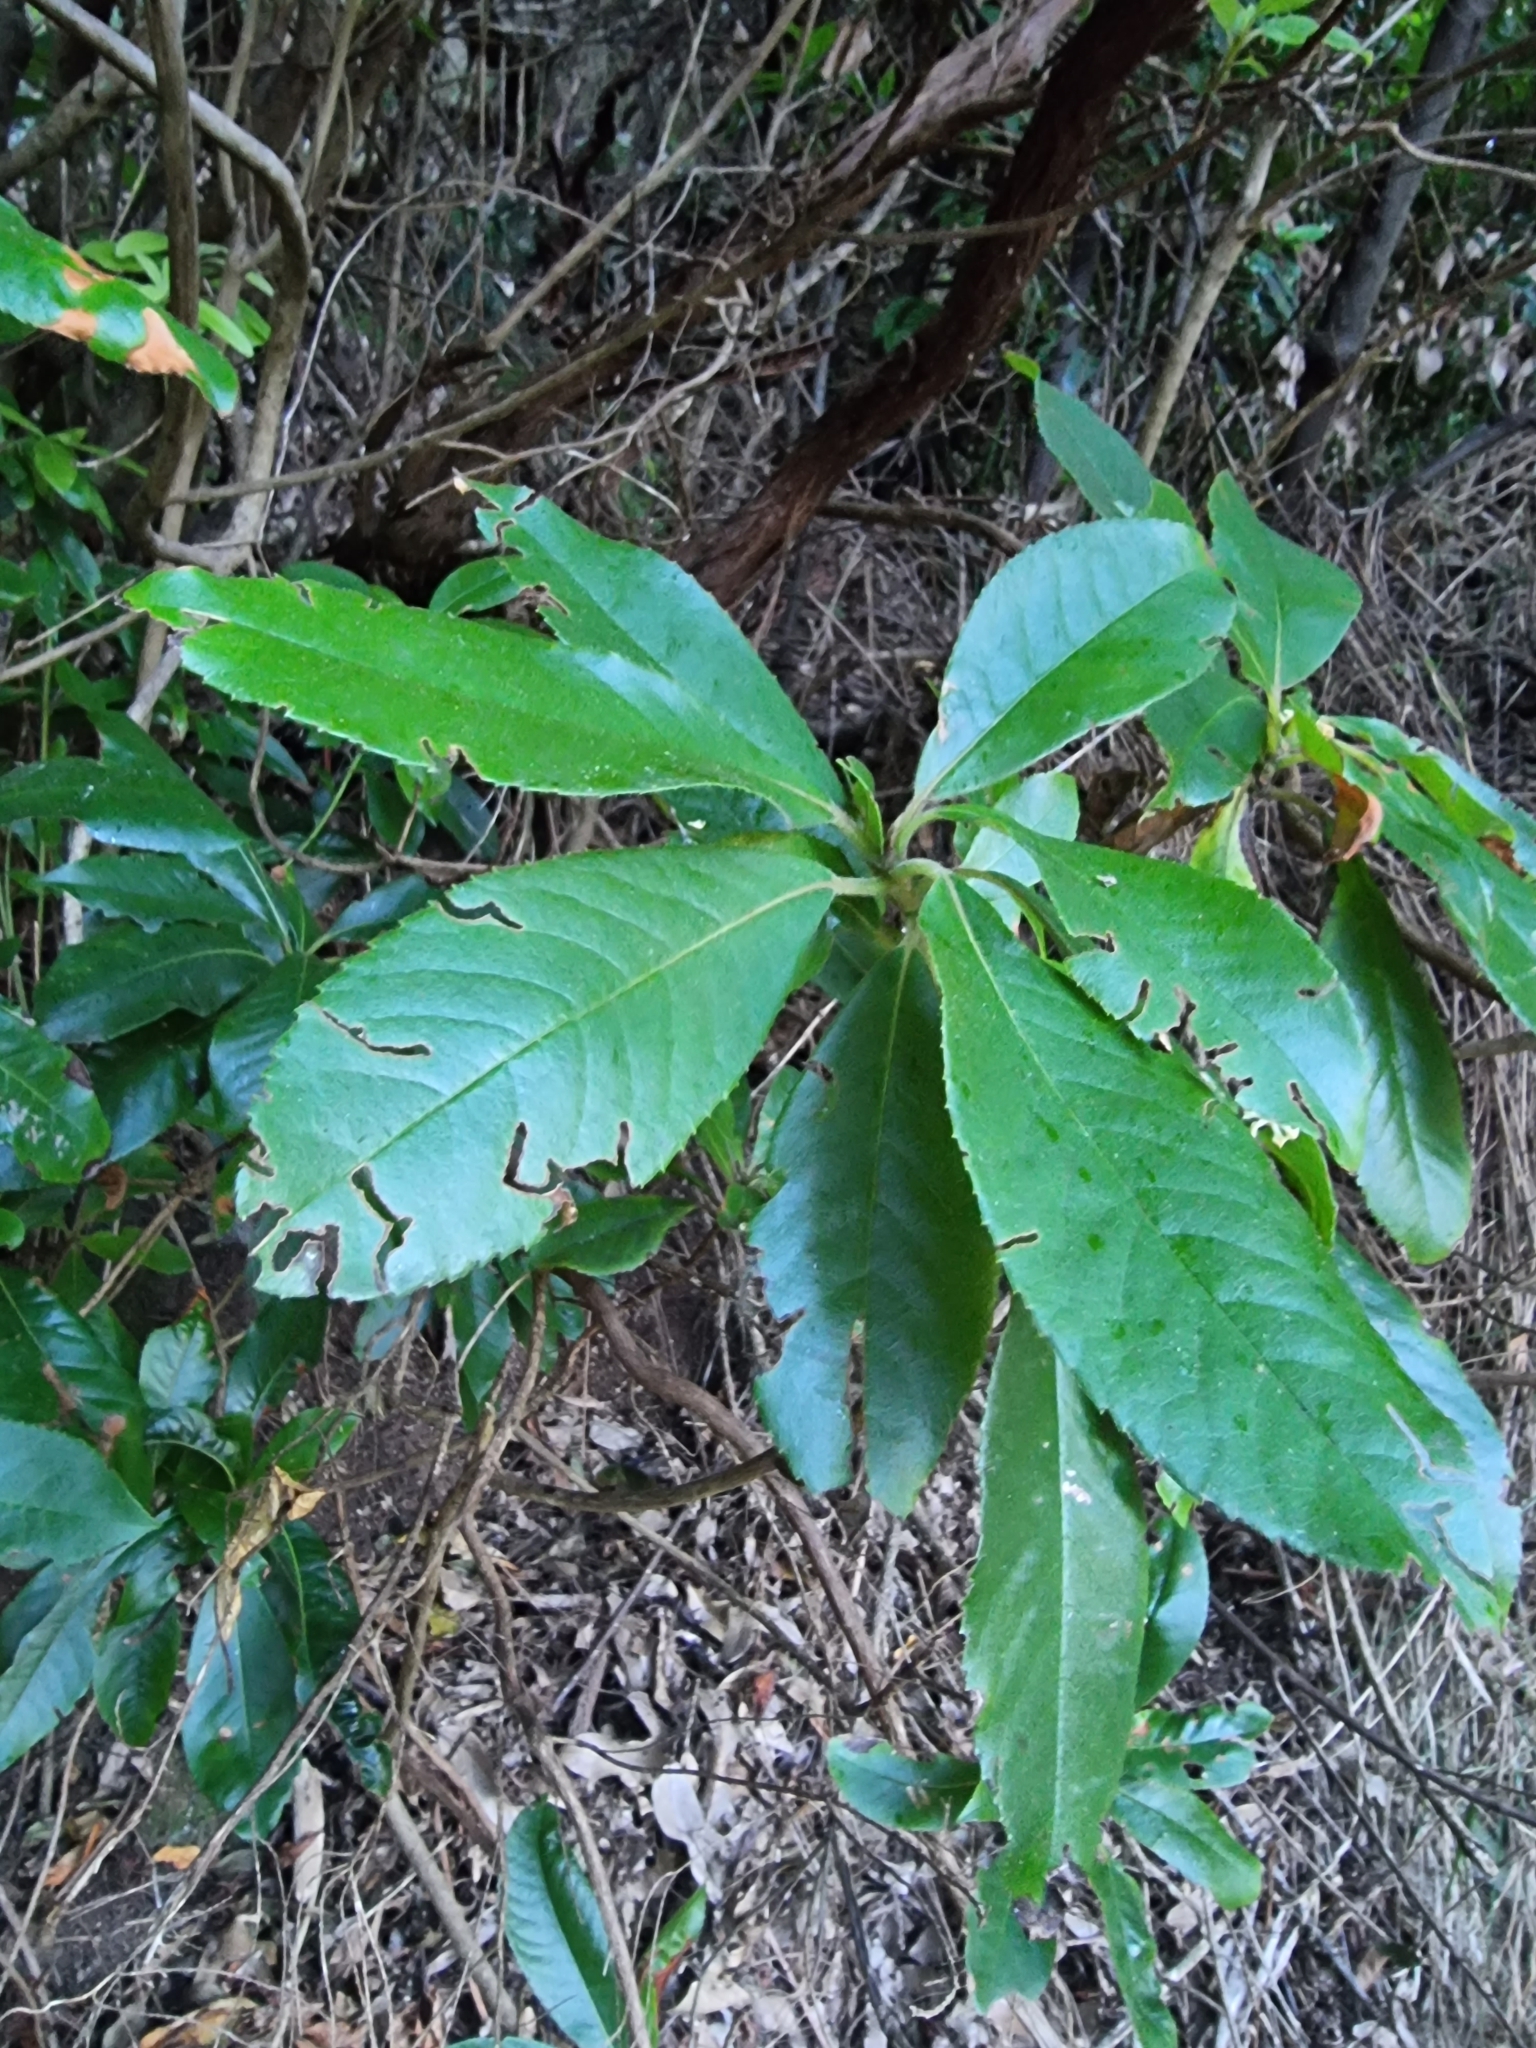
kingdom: Plantae
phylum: Tracheophyta
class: Magnoliopsida
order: Ericales
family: Clethraceae
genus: Clethra
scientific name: Clethra arborea
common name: Lily-of-the-valley-tree
